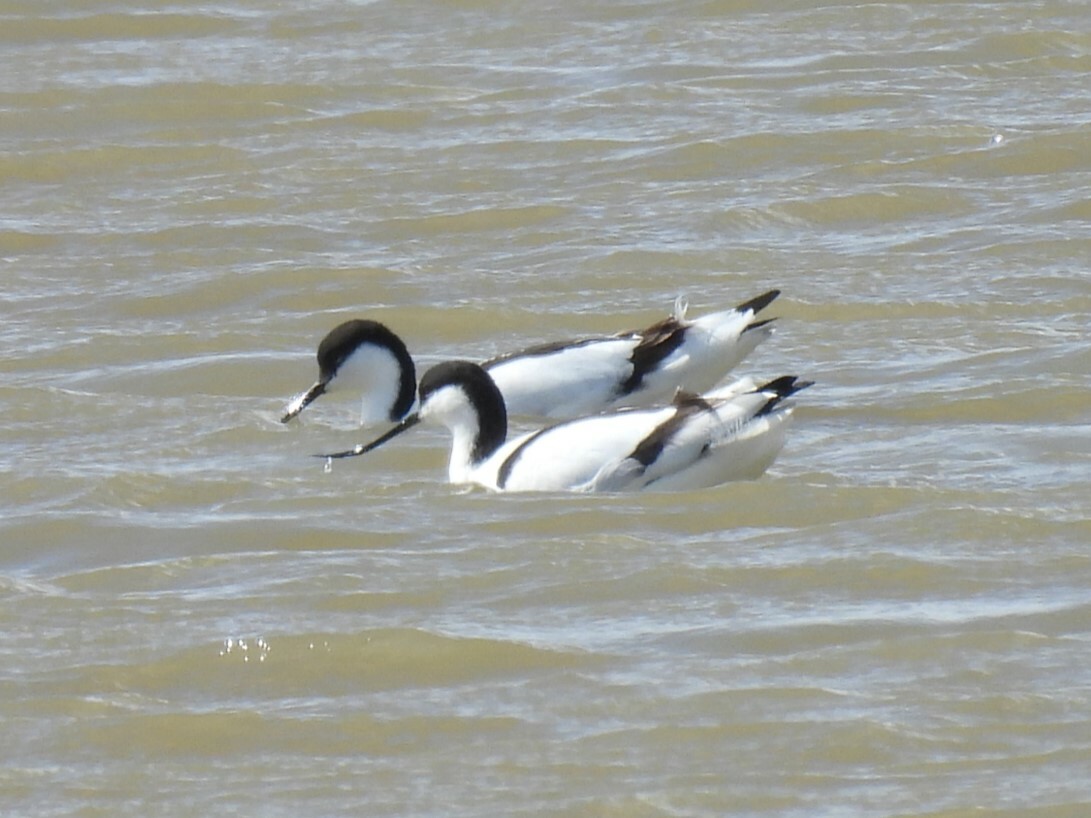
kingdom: Animalia
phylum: Chordata
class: Aves
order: Charadriiformes
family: Recurvirostridae
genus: Recurvirostra
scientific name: Recurvirostra avosetta
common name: Pied avocet
